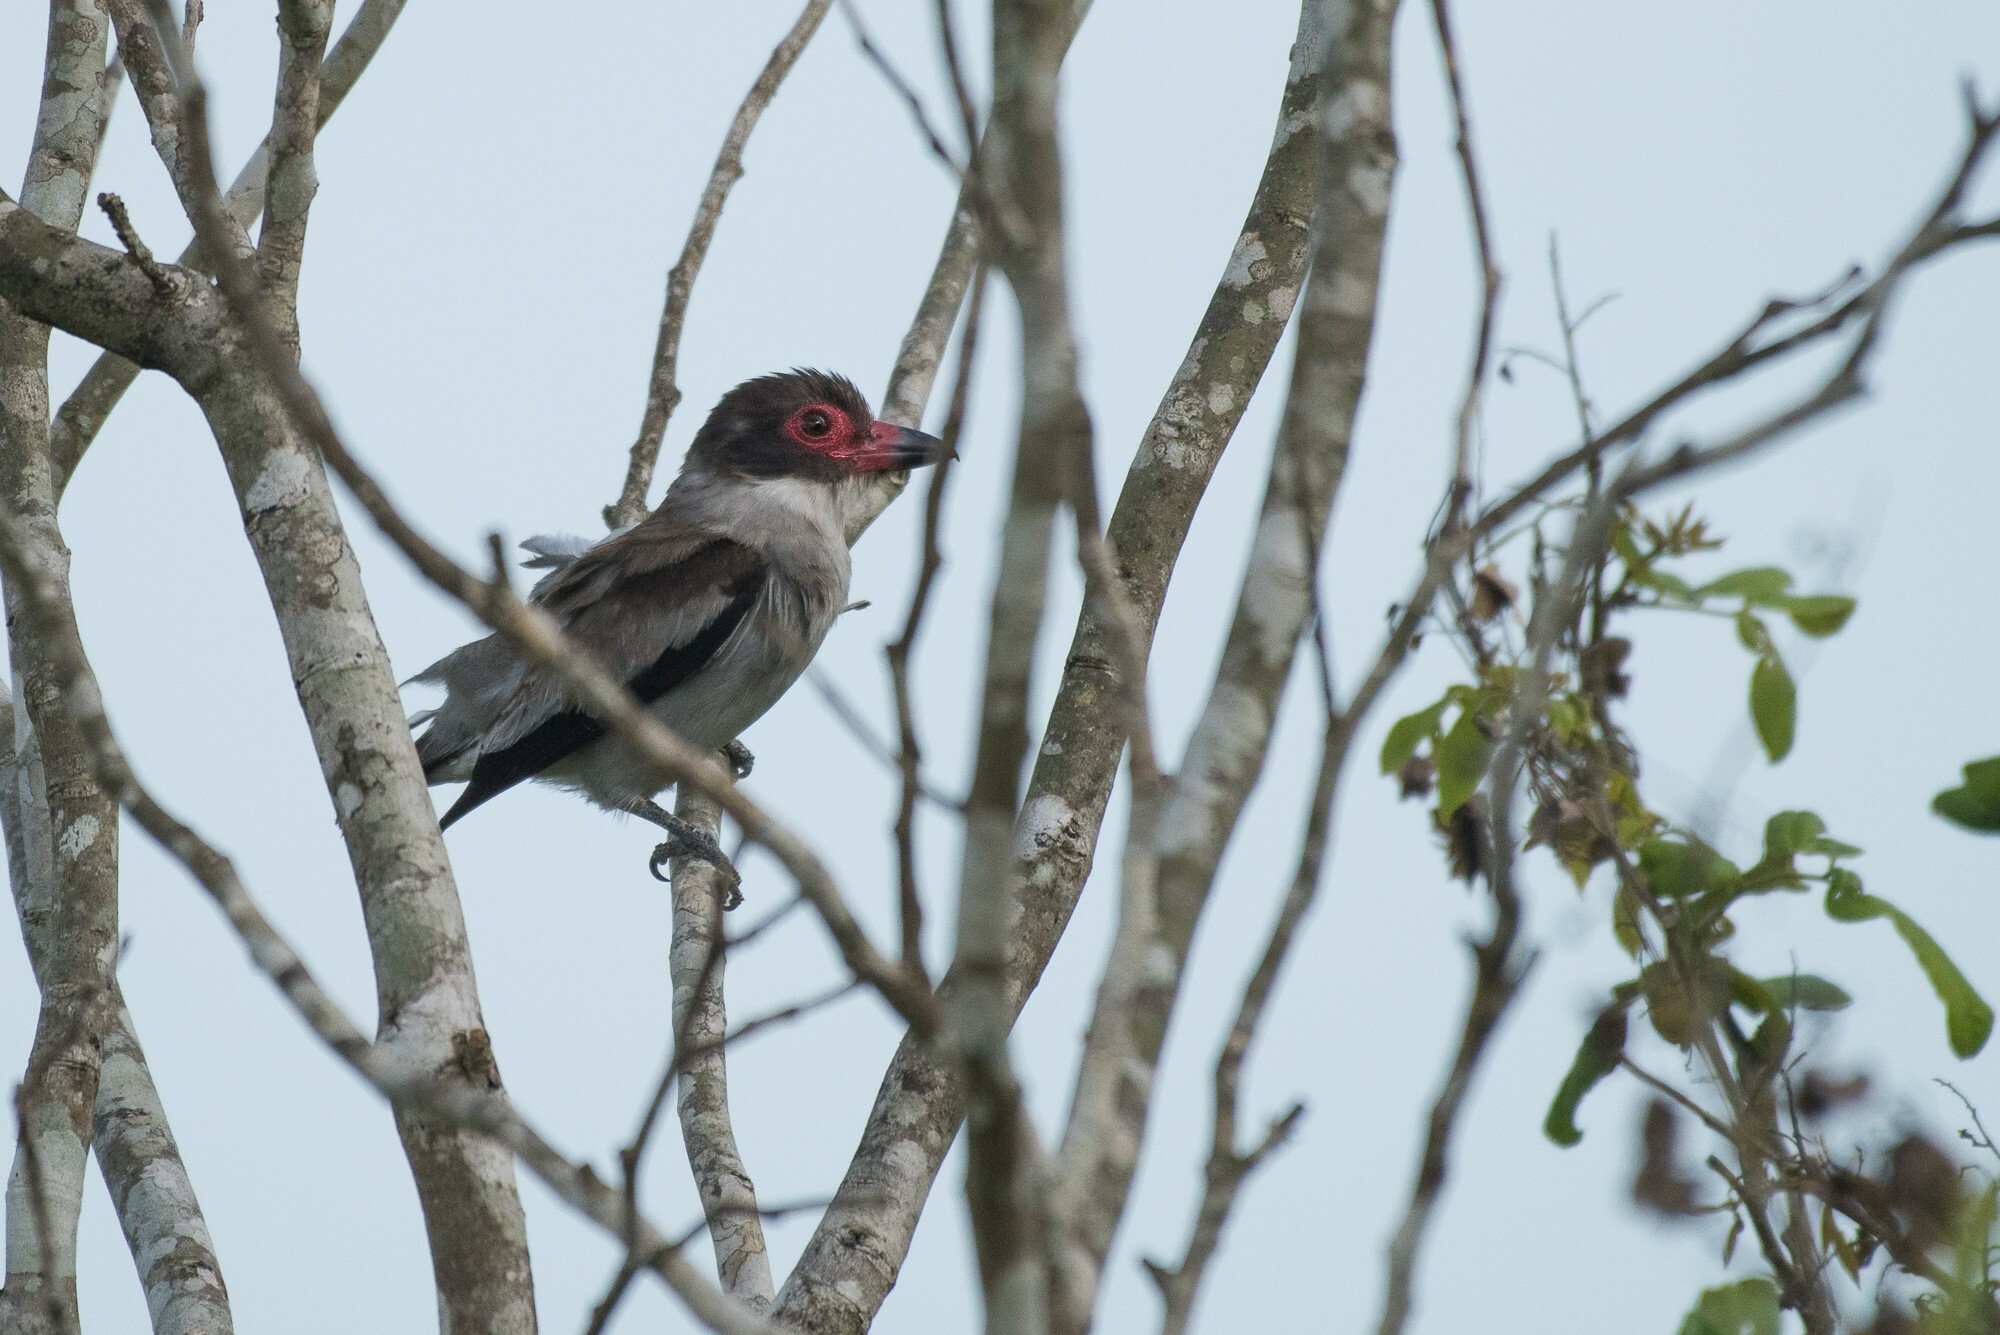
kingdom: Animalia
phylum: Chordata
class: Aves
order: Passeriformes
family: Cotingidae
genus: Tityra
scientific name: Tityra semifasciata
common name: Masked tityra
